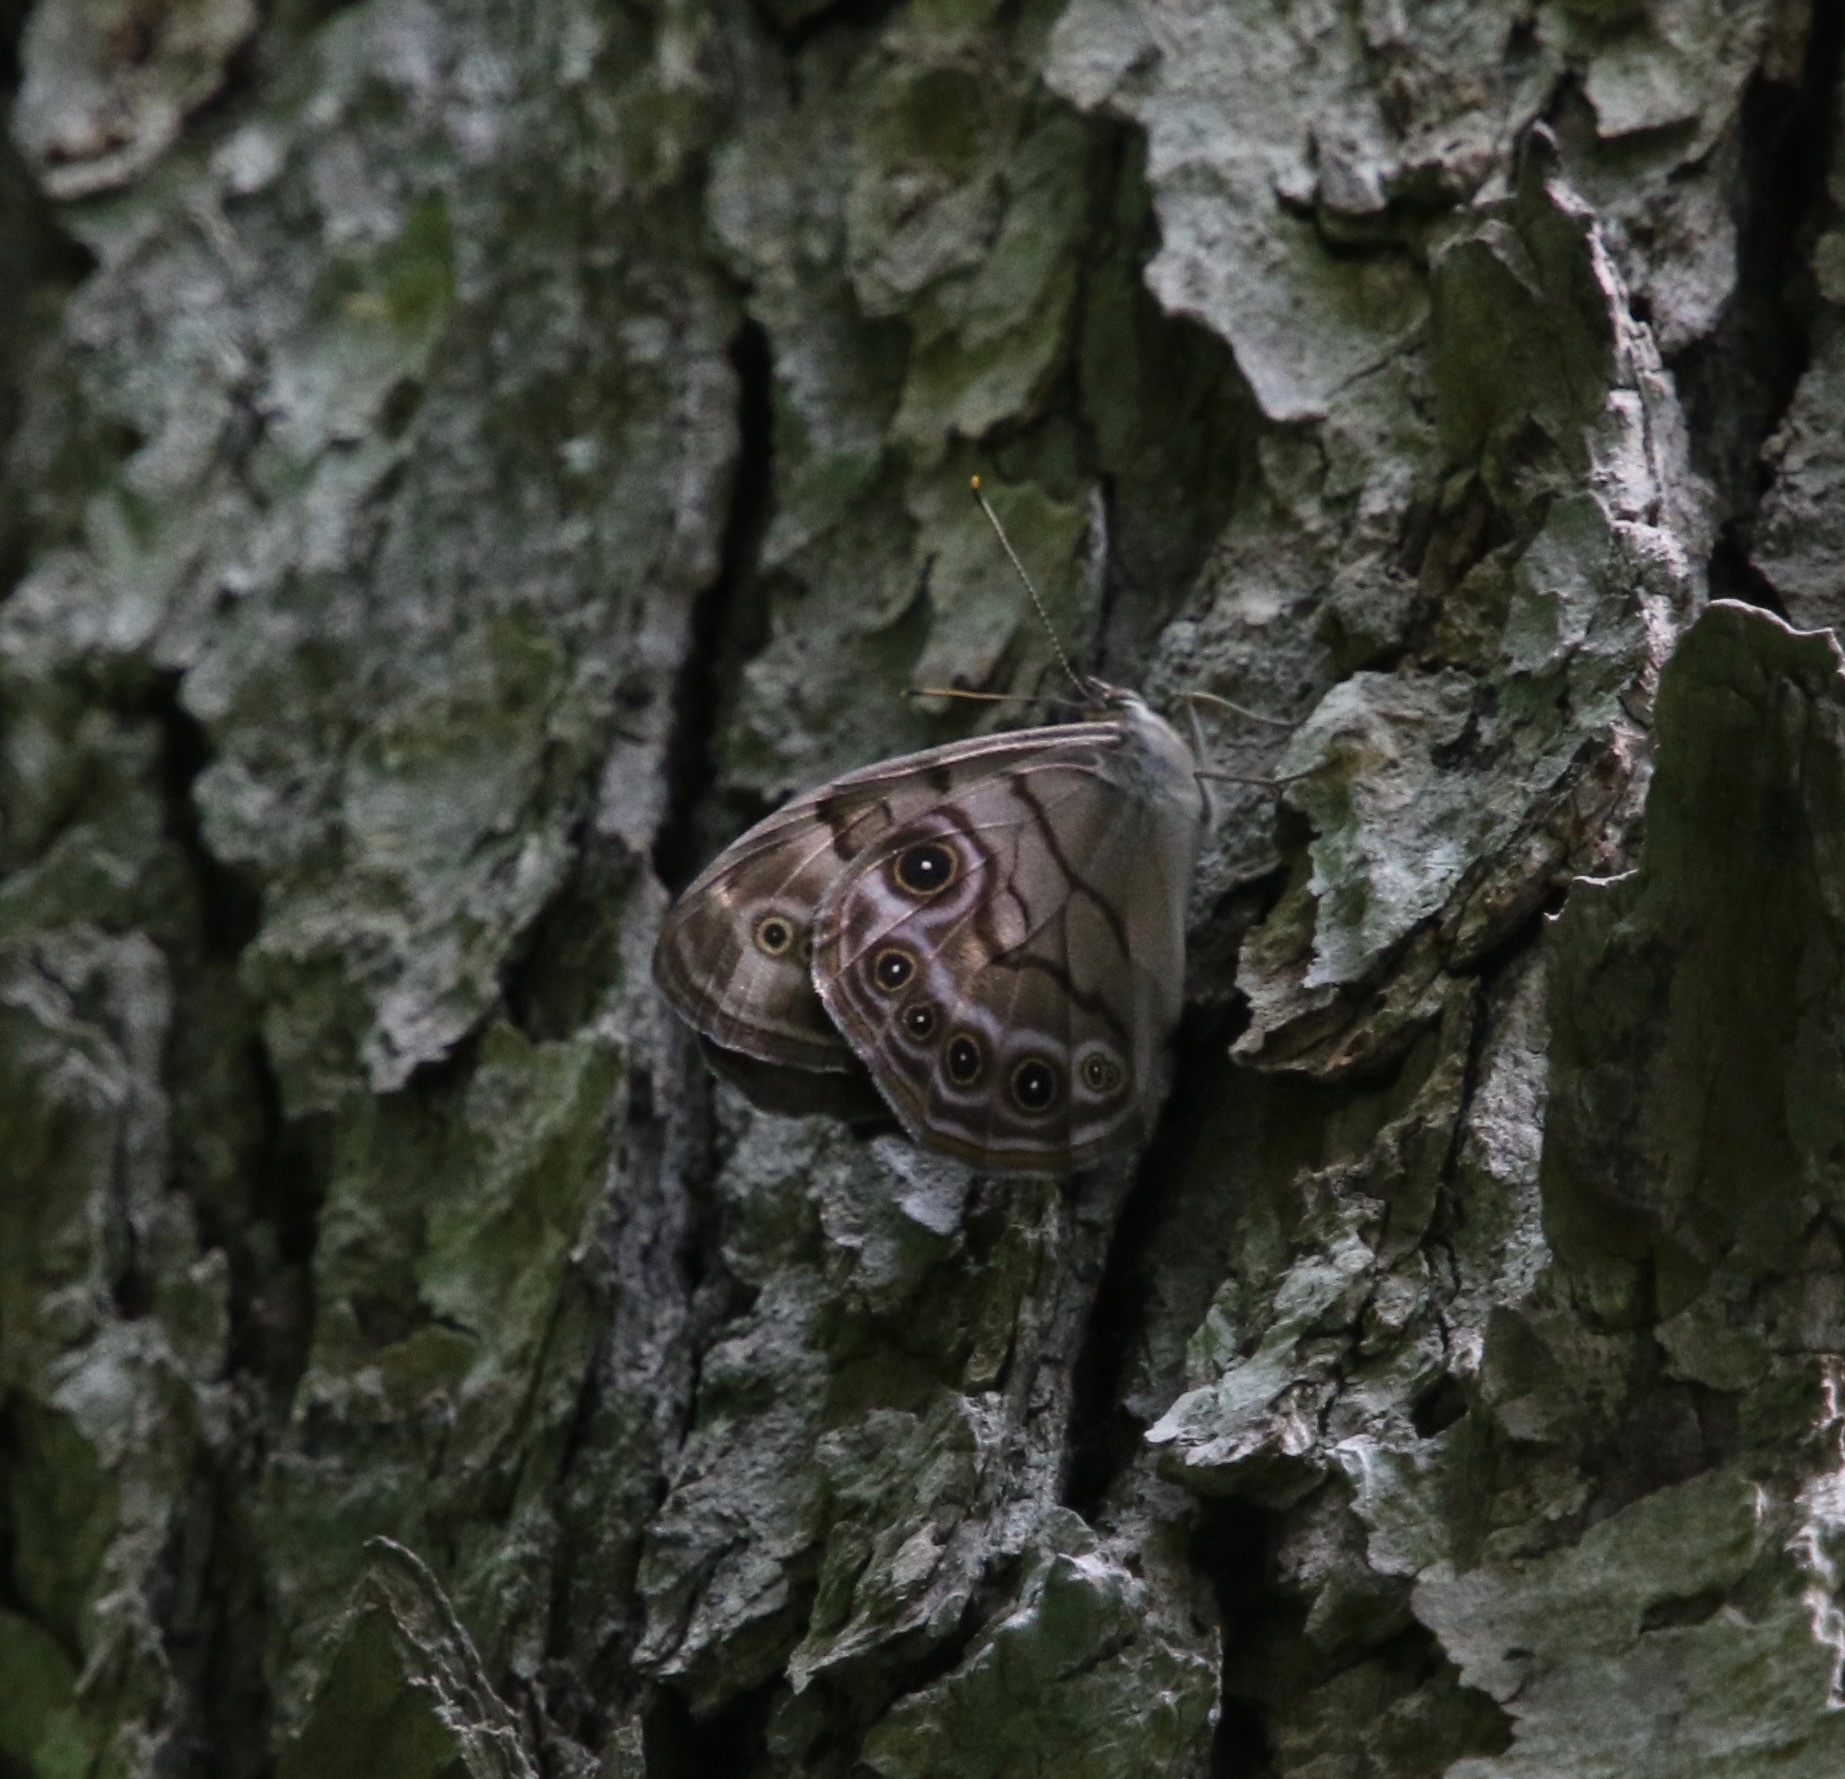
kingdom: Animalia
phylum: Arthropoda
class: Insecta
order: Lepidoptera
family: Nymphalidae
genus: Lethe
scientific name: Lethe anthedon
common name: Northern pearly-eye
